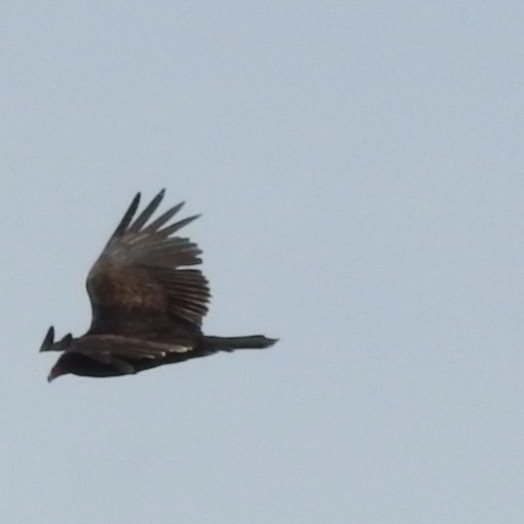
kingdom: Animalia
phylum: Chordata
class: Aves
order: Accipitriformes
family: Cathartidae
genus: Cathartes
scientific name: Cathartes aura
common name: Turkey vulture
